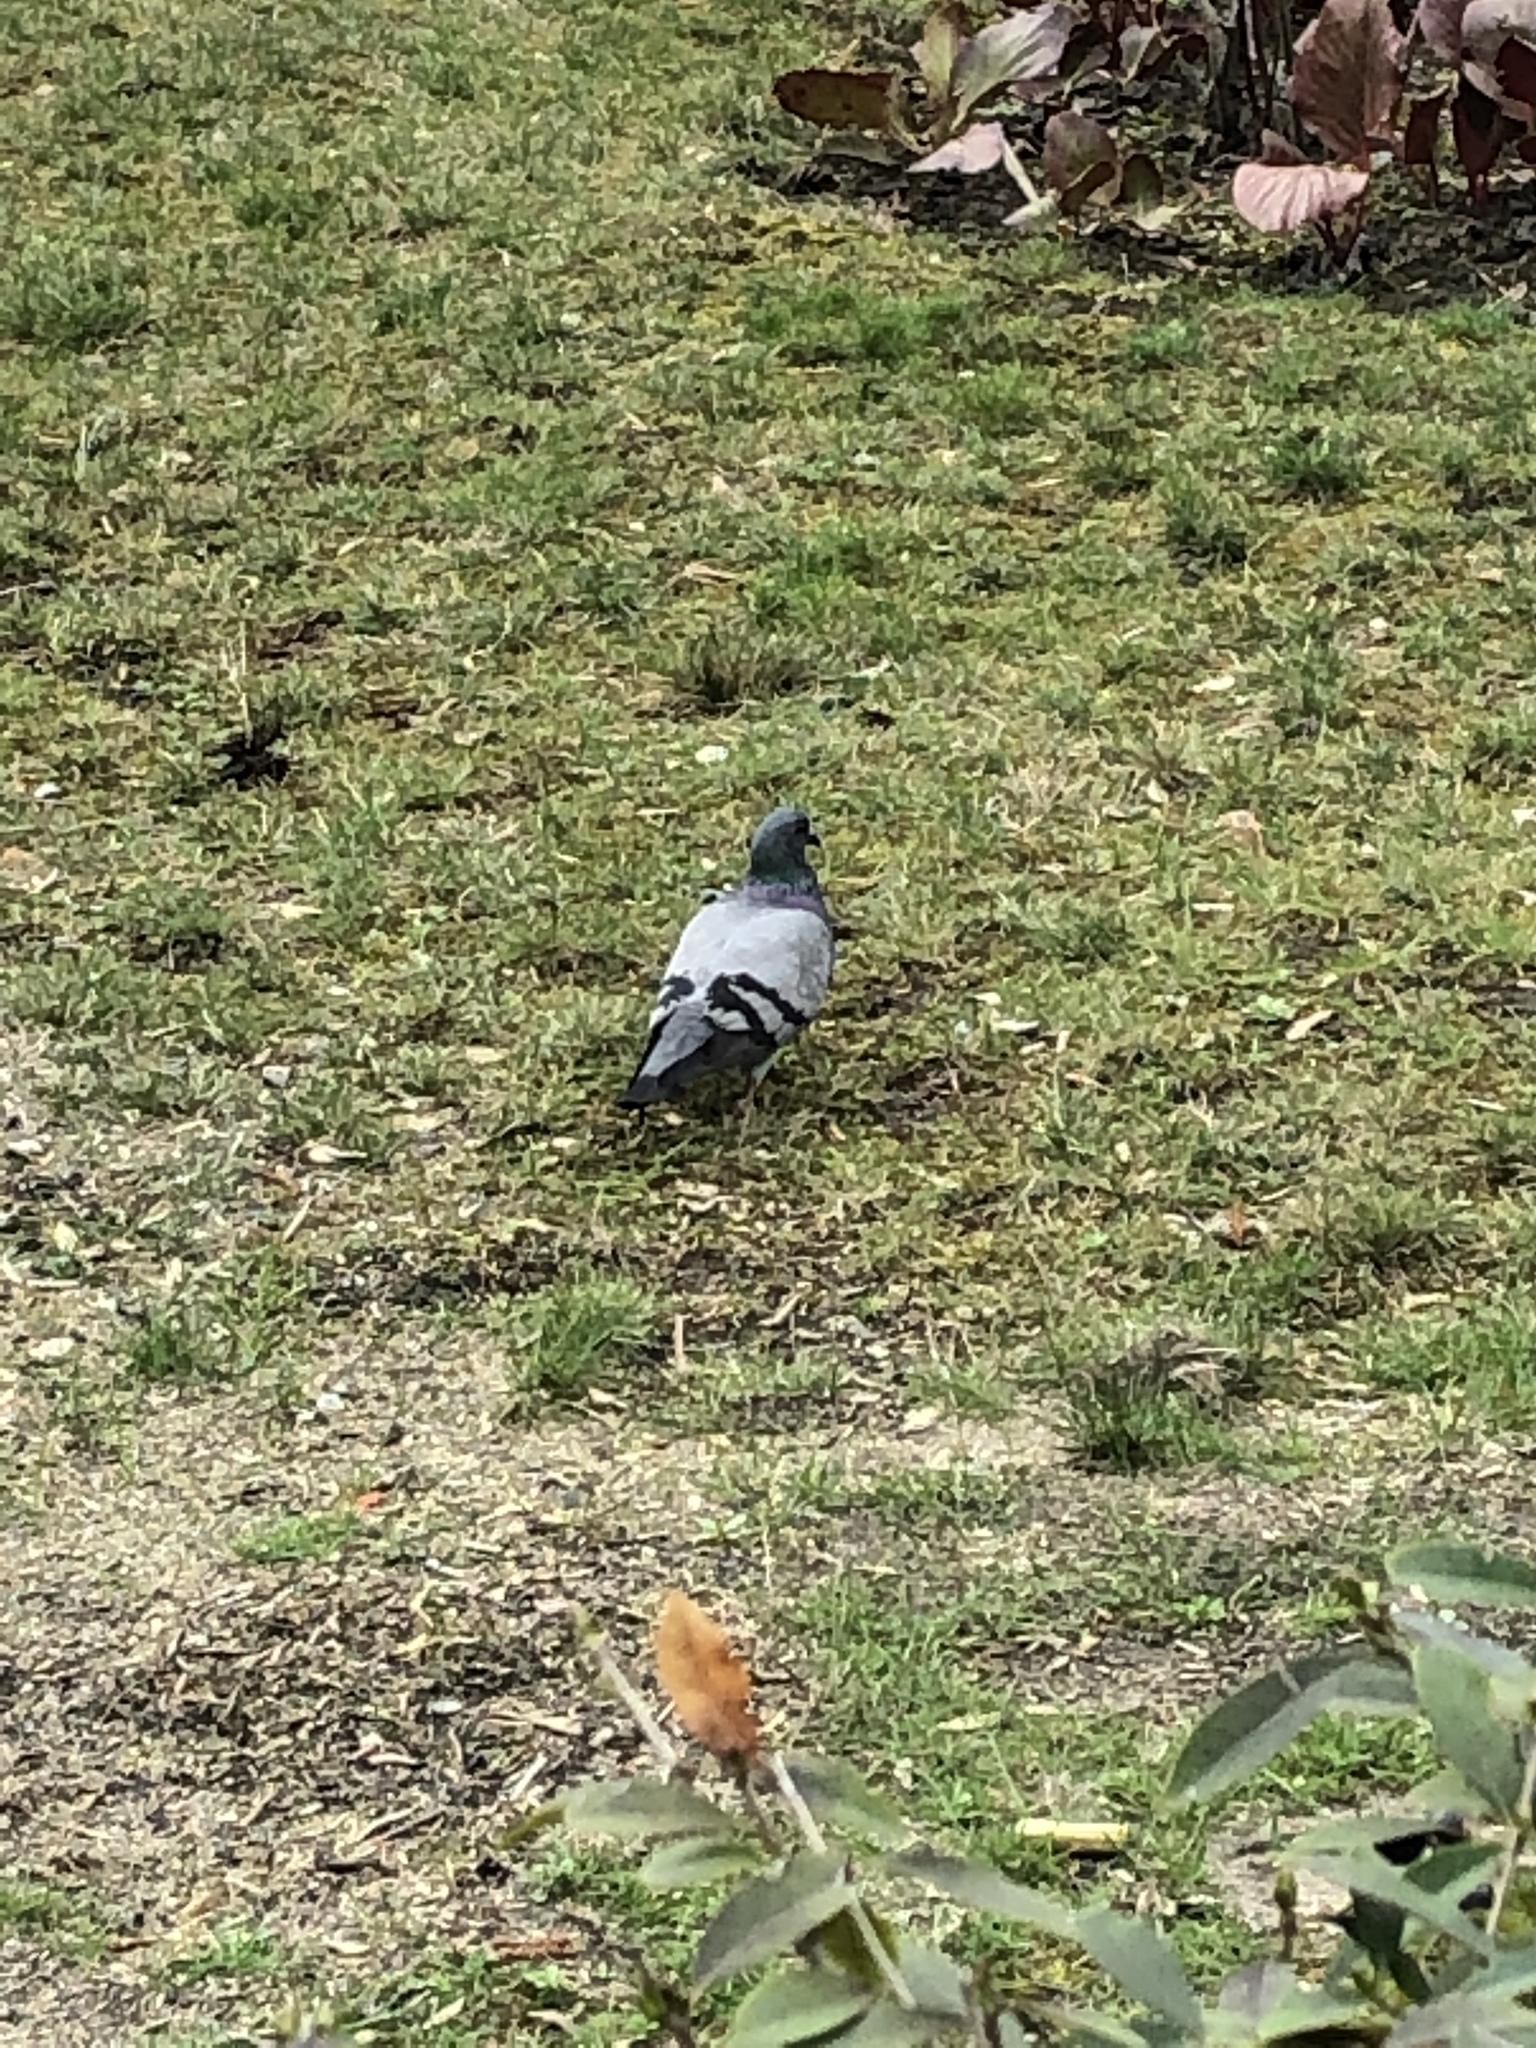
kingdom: Animalia
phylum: Chordata
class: Aves
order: Columbiformes
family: Columbidae
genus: Columba
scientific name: Columba livia
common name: Rock pigeon
